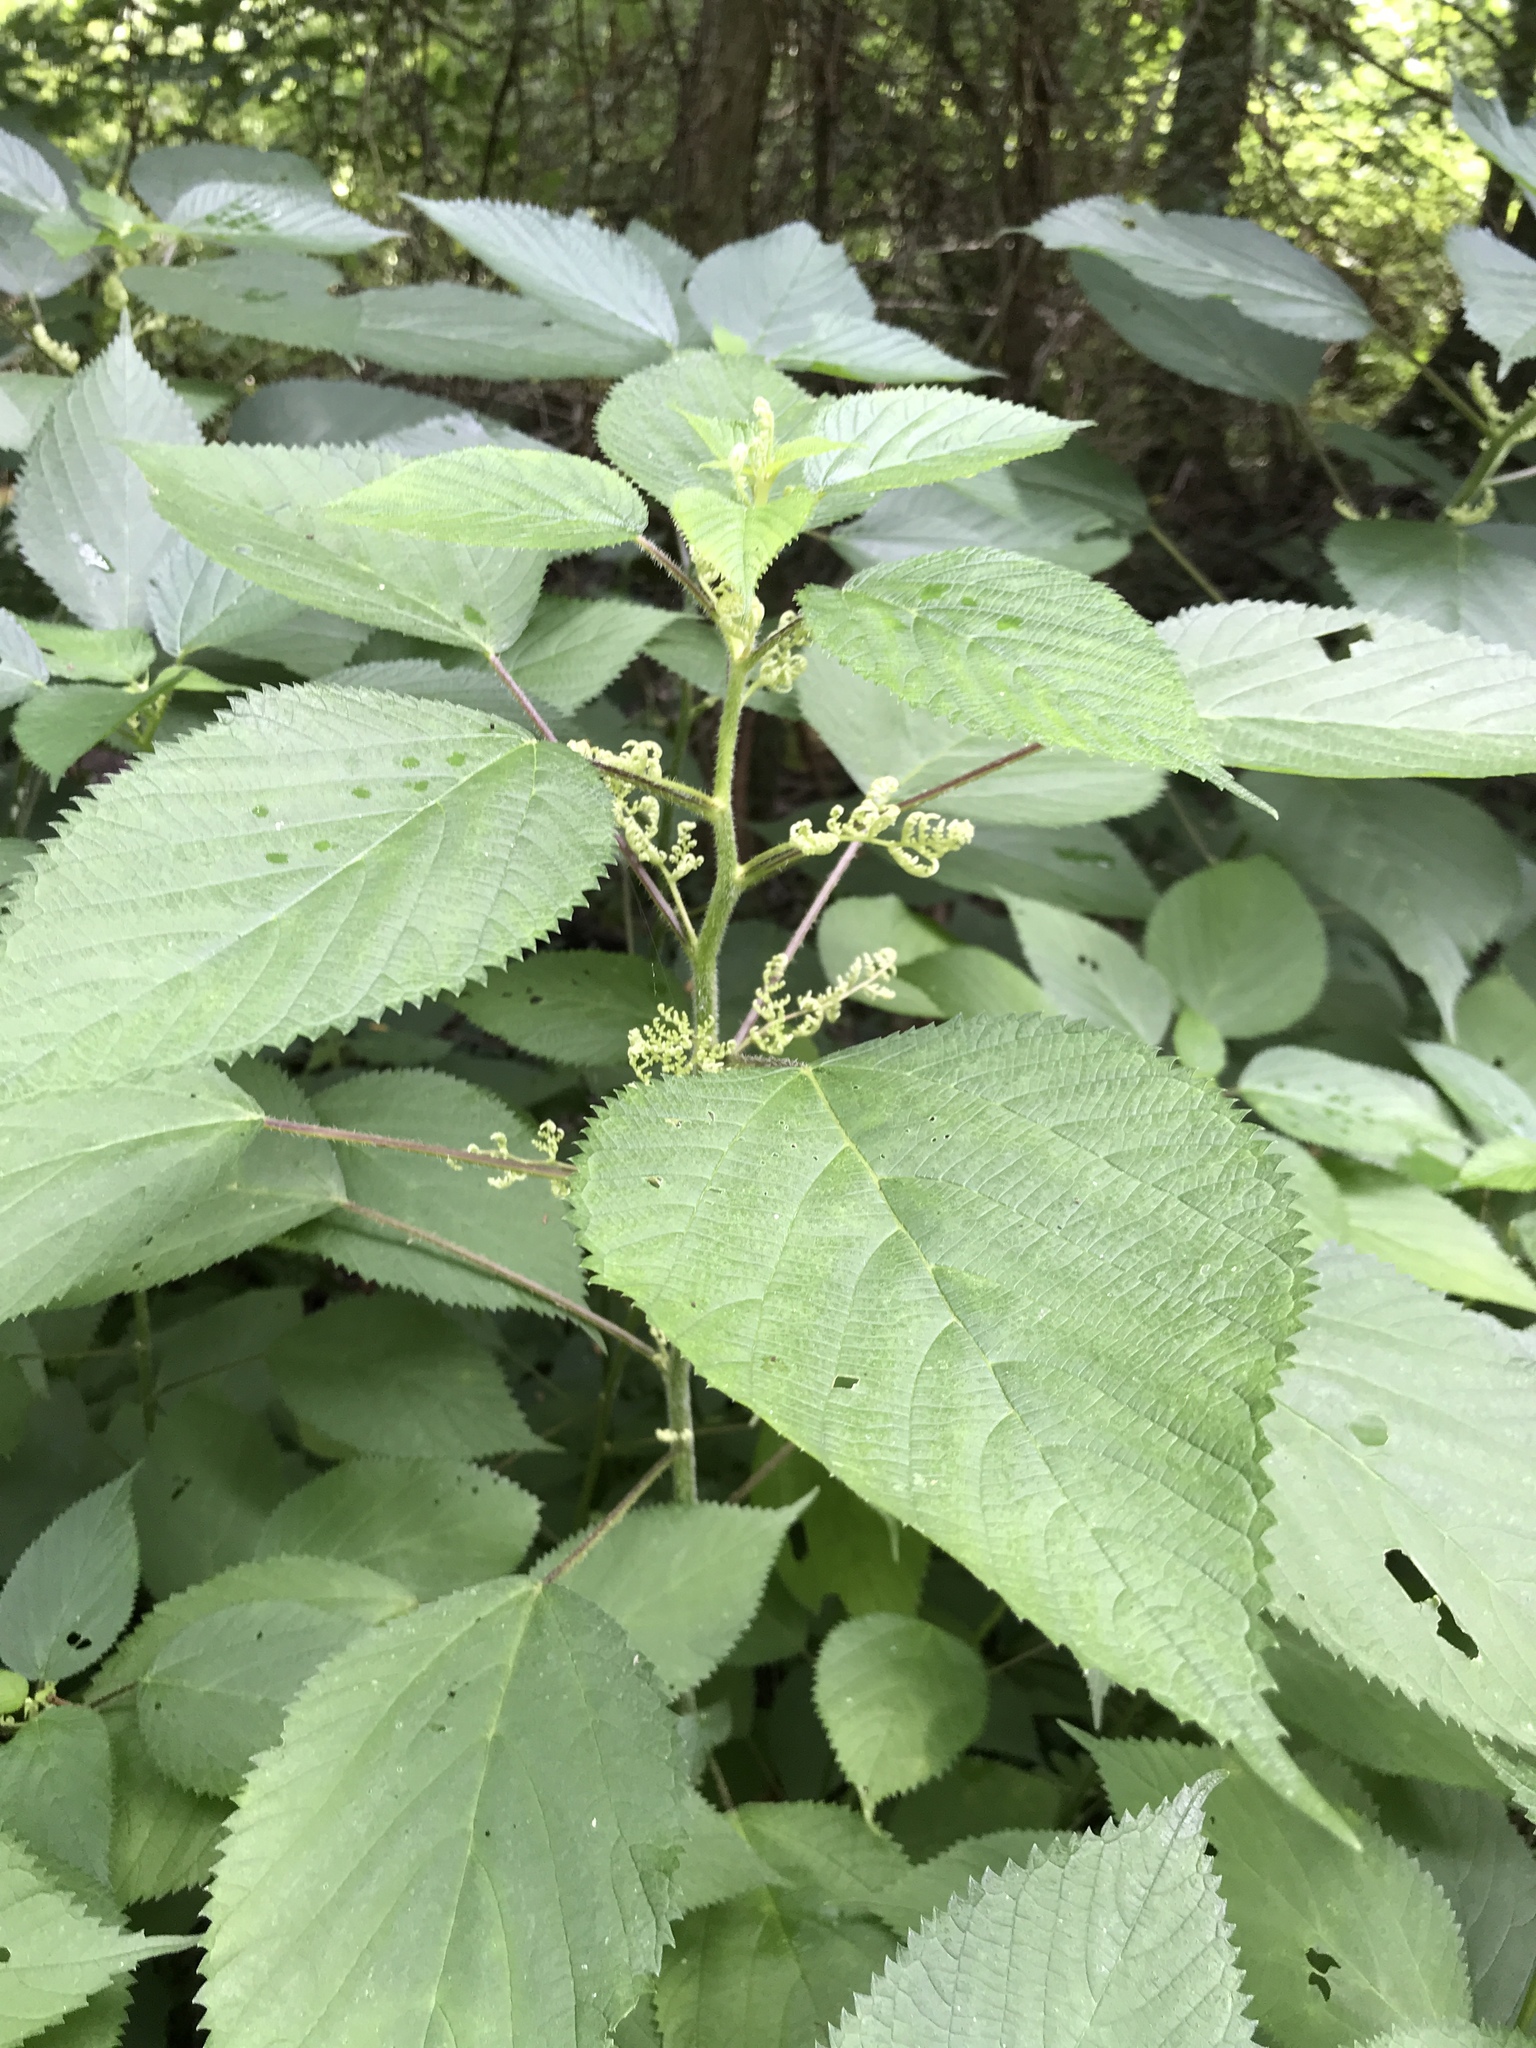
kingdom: Plantae
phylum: Tracheophyta
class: Magnoliopsida
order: Rosales
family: Urticaceae
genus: Laportea
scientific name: Laportea canadensis
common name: Canada nettle
